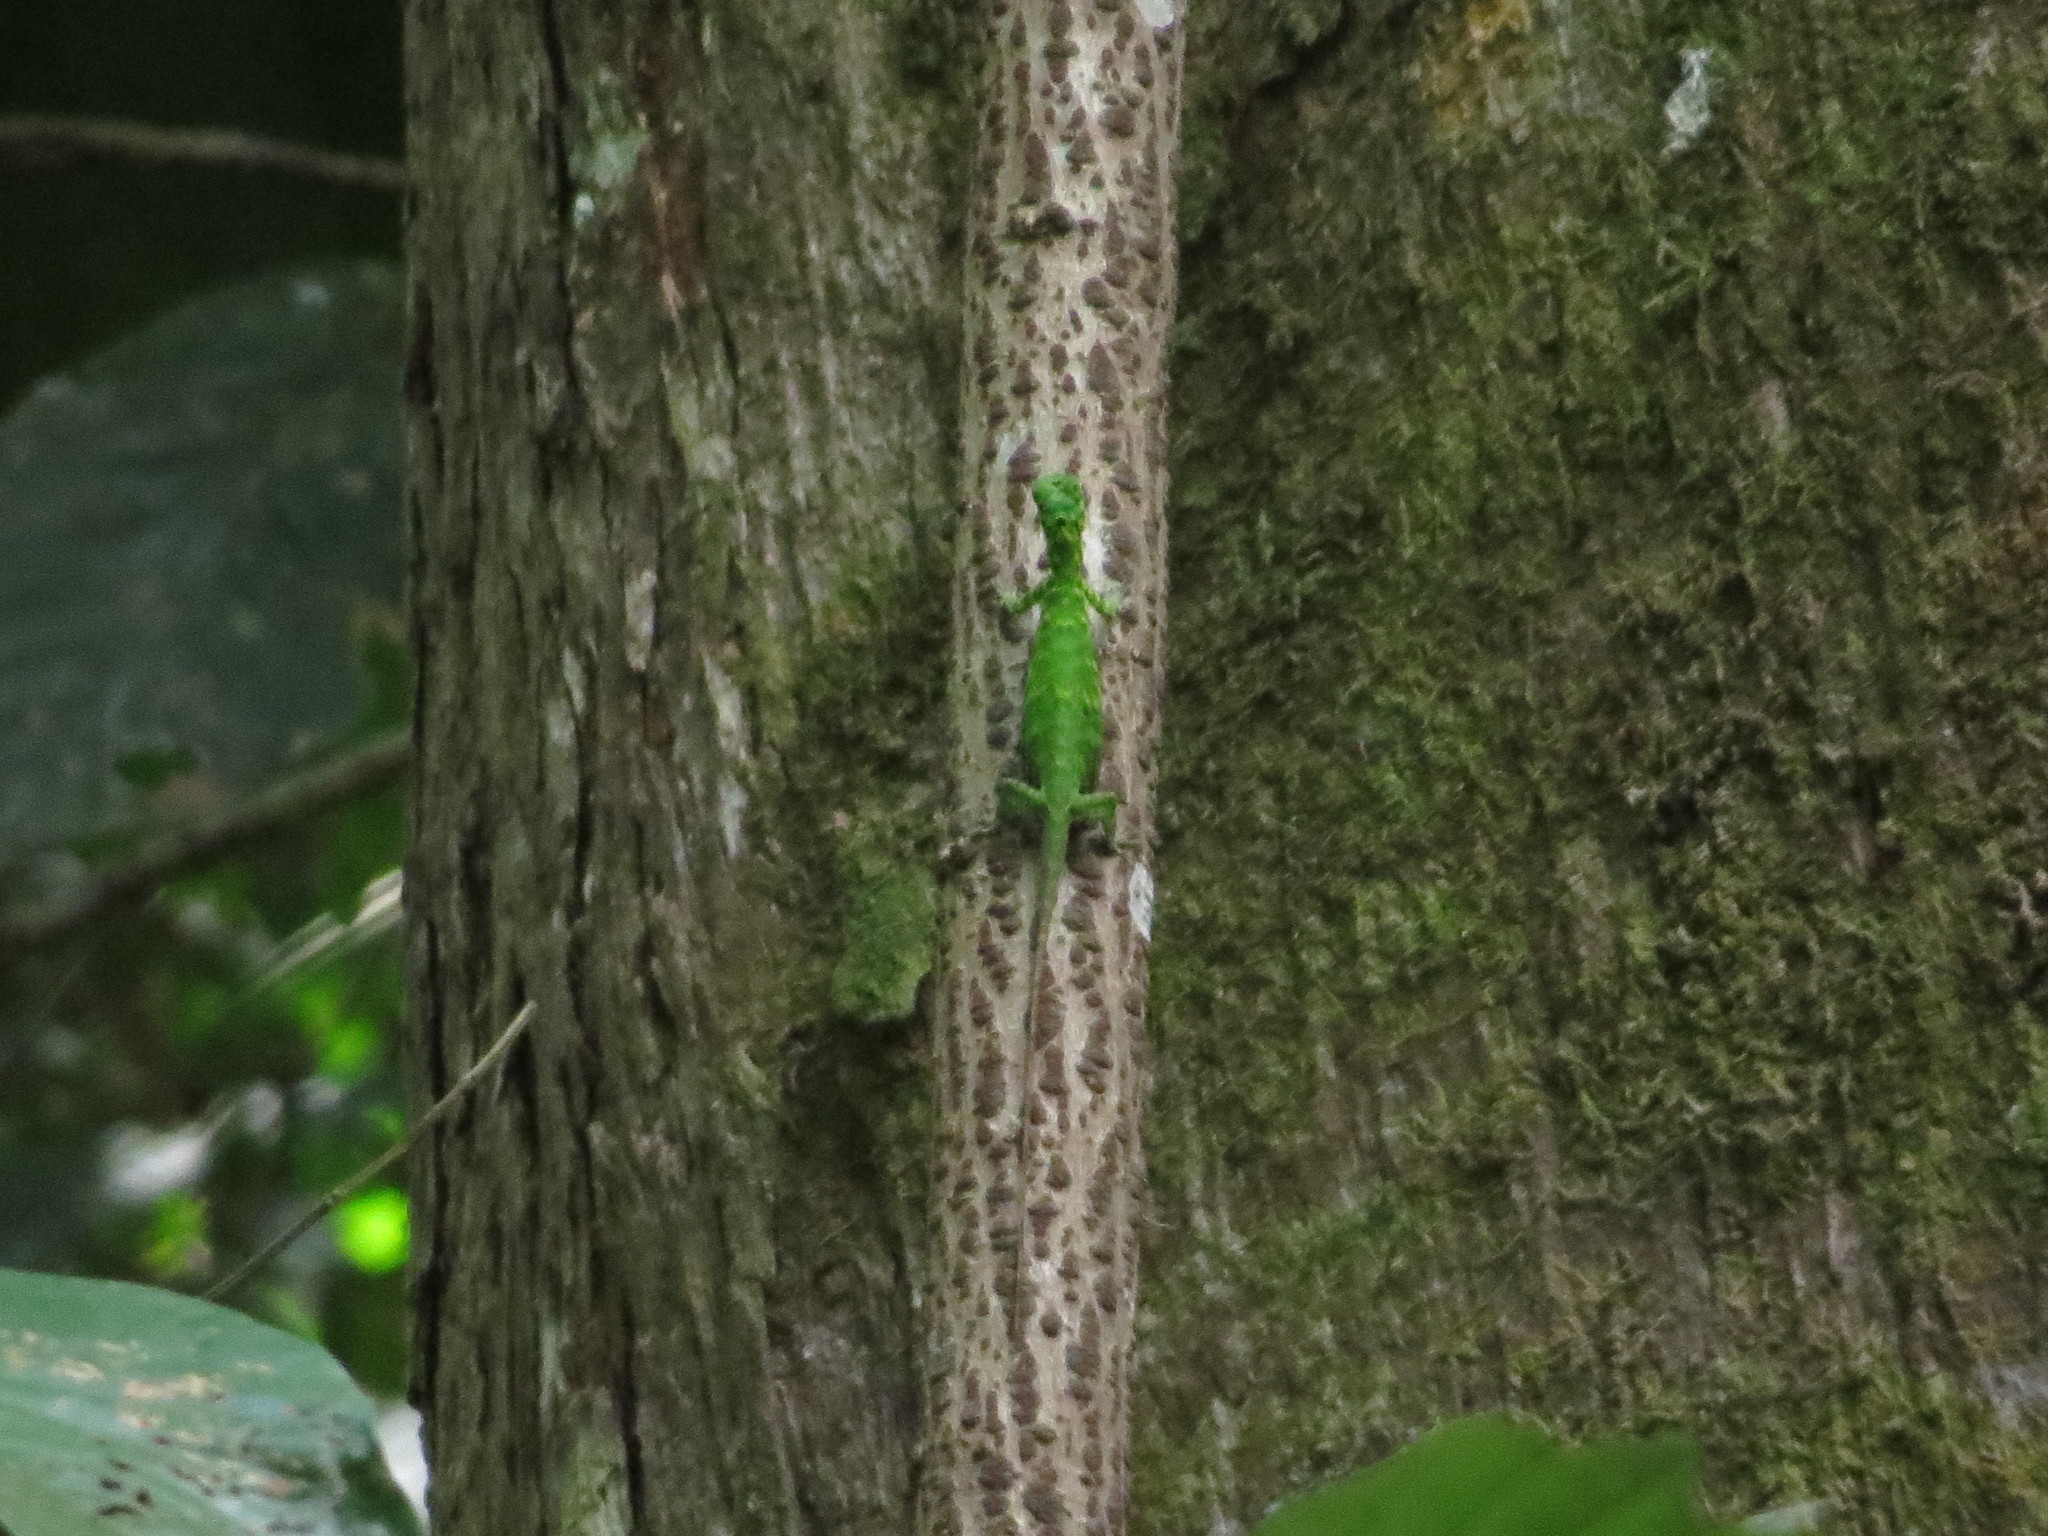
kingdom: Animalia
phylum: Chordata
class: Squamata
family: Agamidae
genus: Draco
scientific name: Draco cornutus
